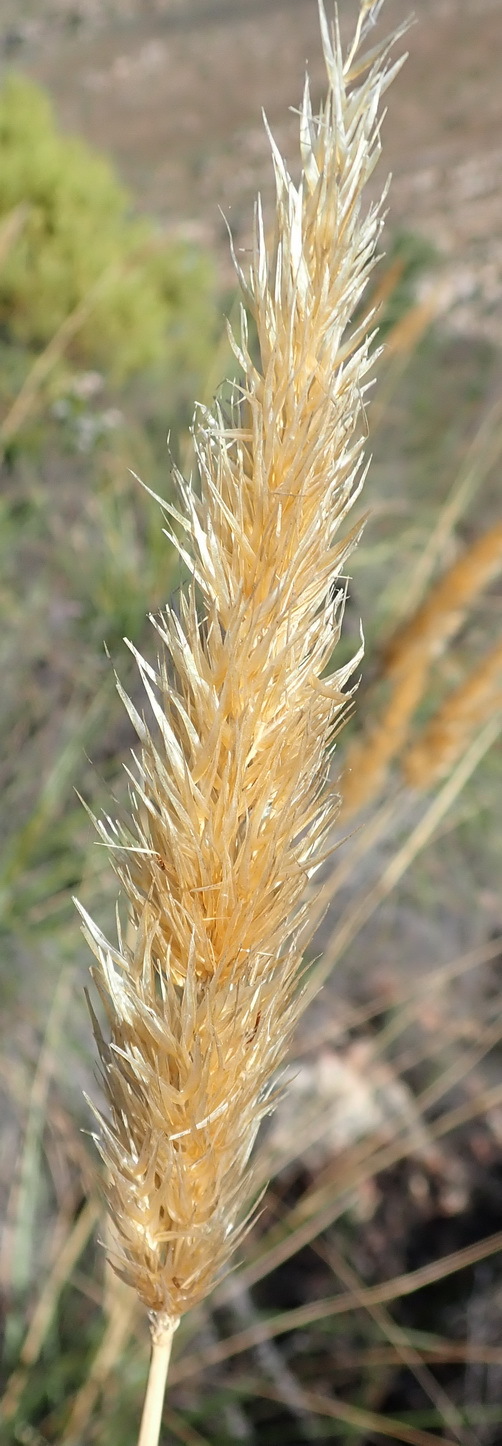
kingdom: Plantae
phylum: Tracheophyta
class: Liliopsida
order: Poales
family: Poaceae
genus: Capeochloa
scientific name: Capeochloa arundinacea
